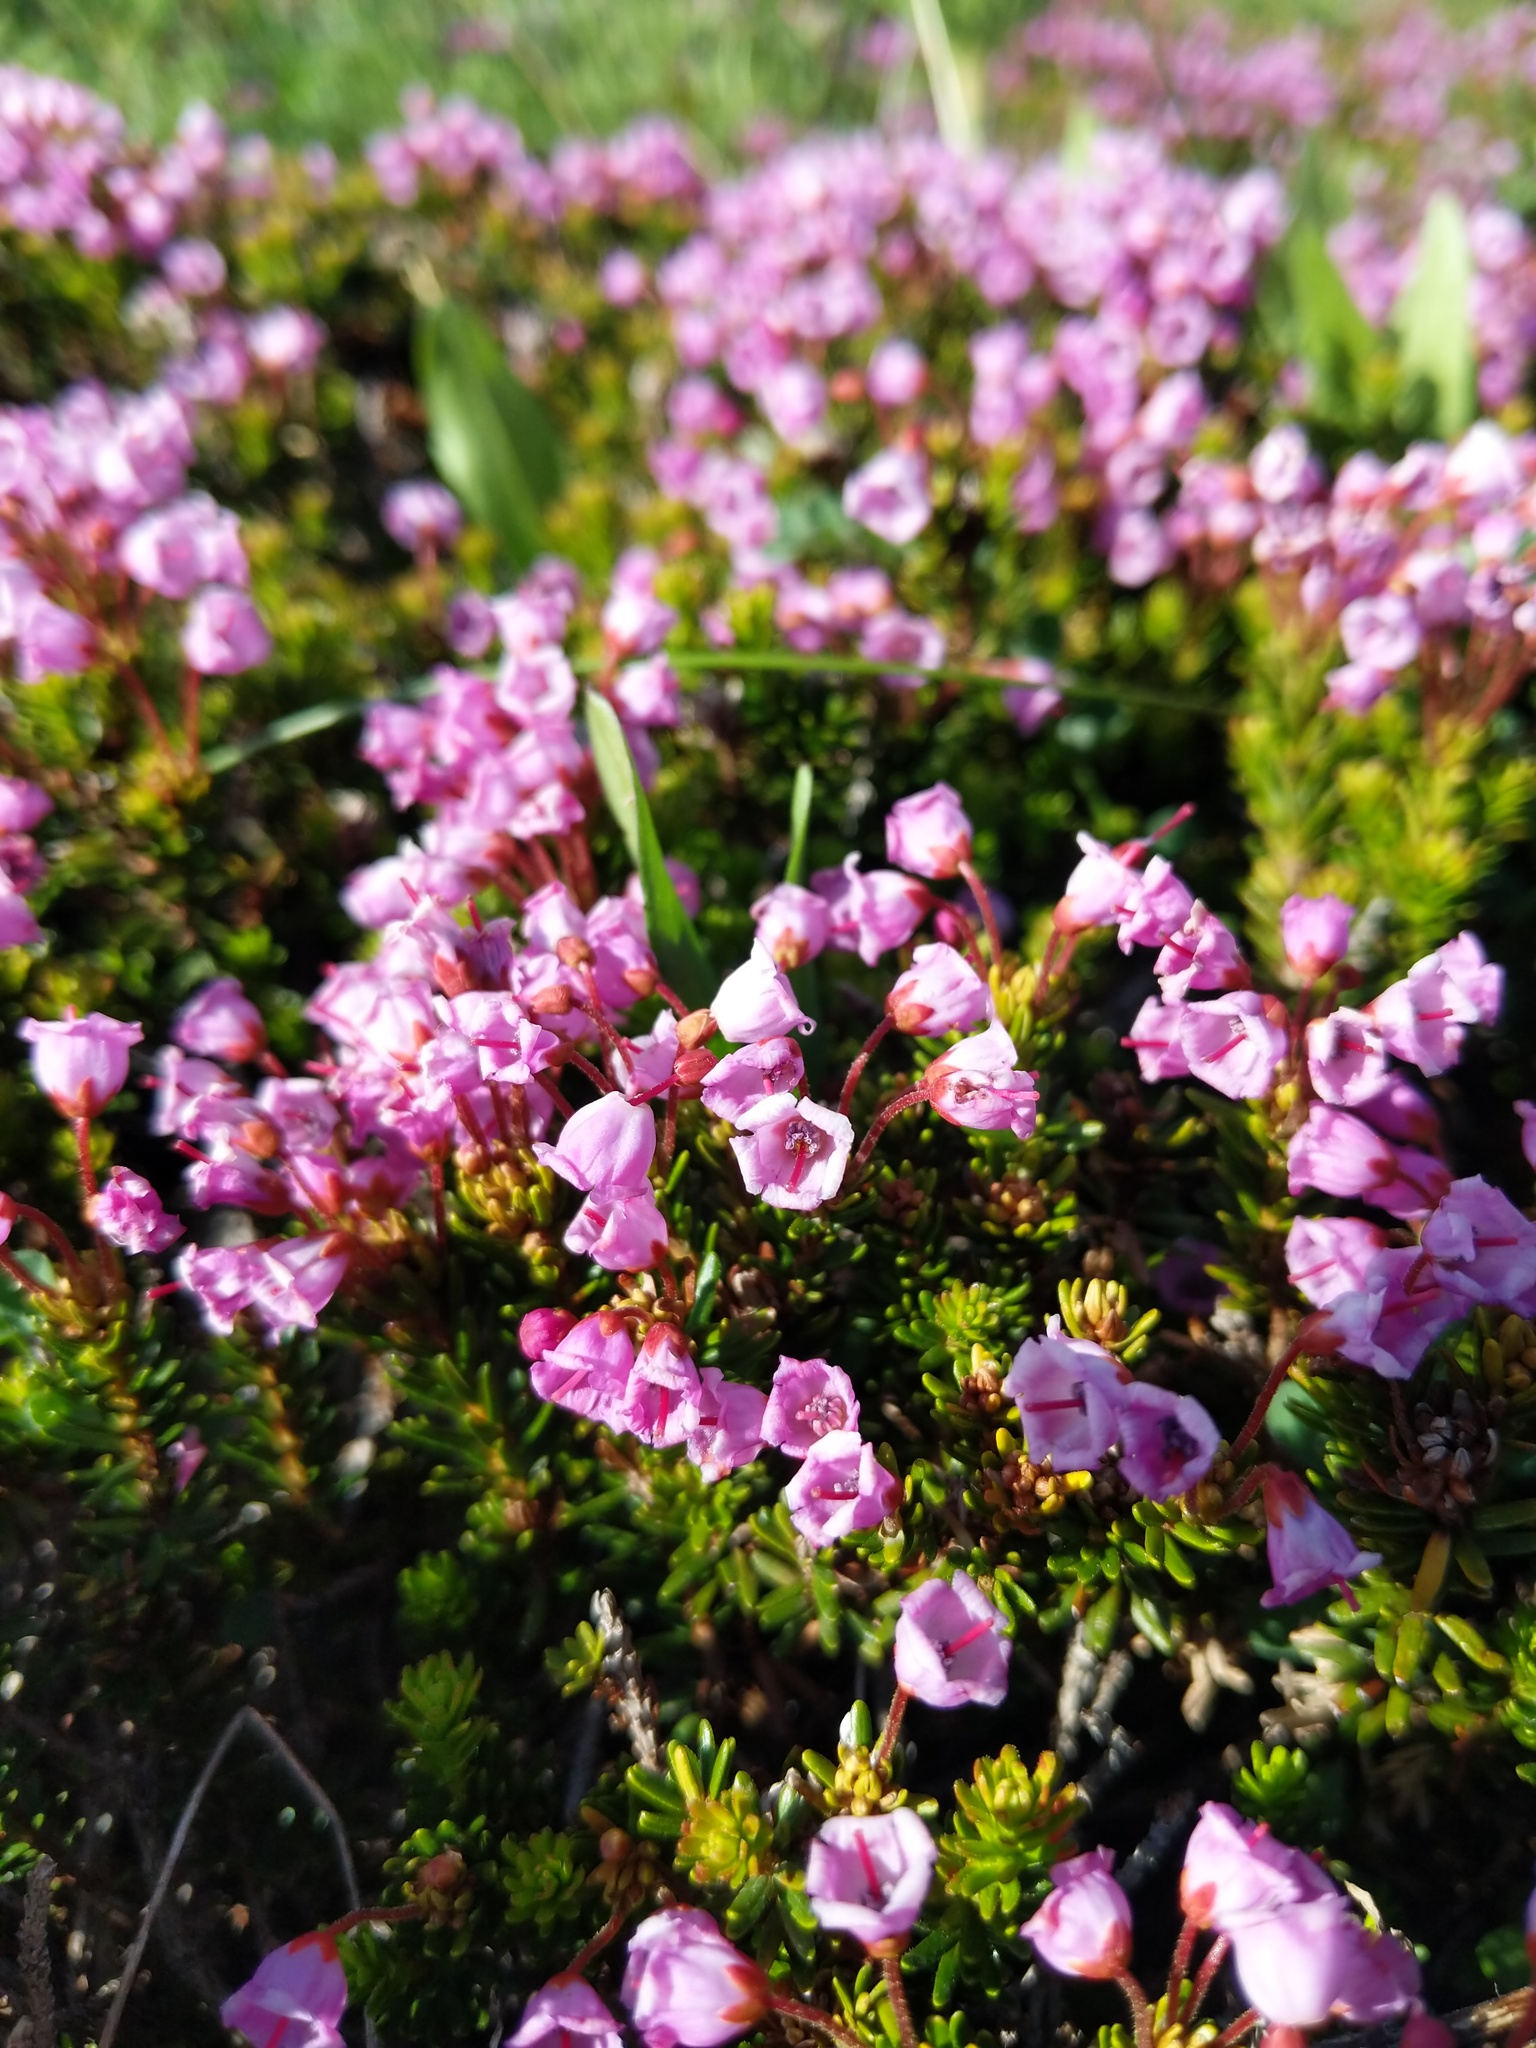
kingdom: Plantae
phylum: Tracheophyta
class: Magnoliopsida
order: Ericales
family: Ericaceae
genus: Phyllodoce
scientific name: Phyllodoce empetriformis
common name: Pink mountain heather
